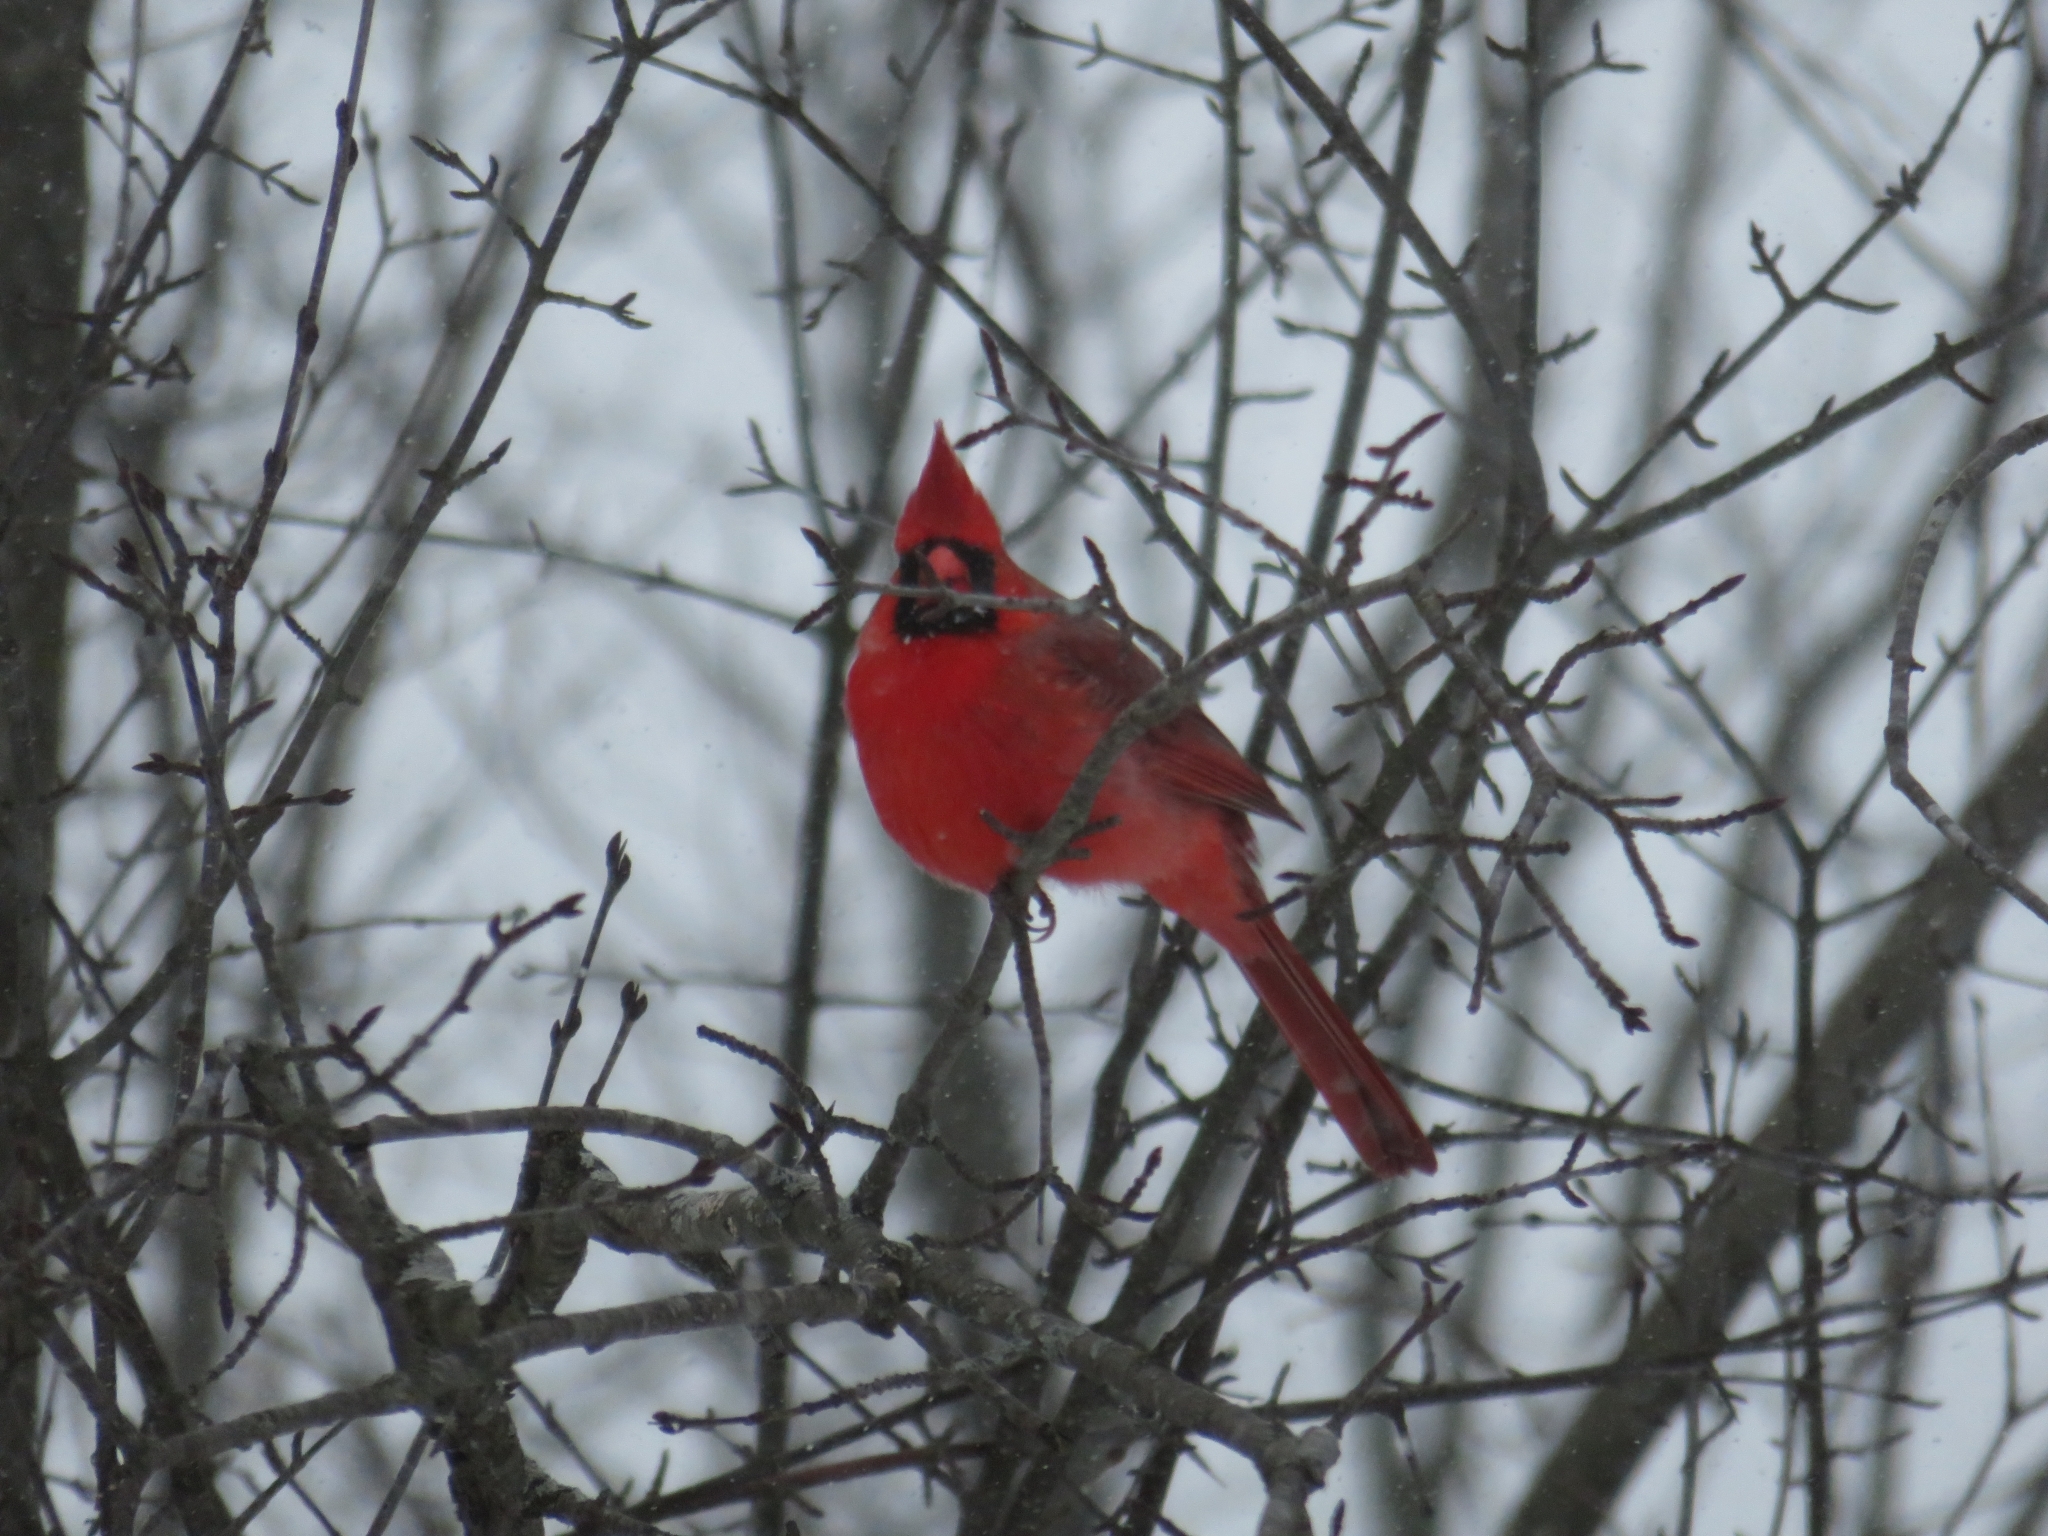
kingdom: Animalia
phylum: Chordata
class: Aves
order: Passeriformes
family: Cardinalidae
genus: Cardinalis
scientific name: Cardinalis cardinalis
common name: Northern cardinal
